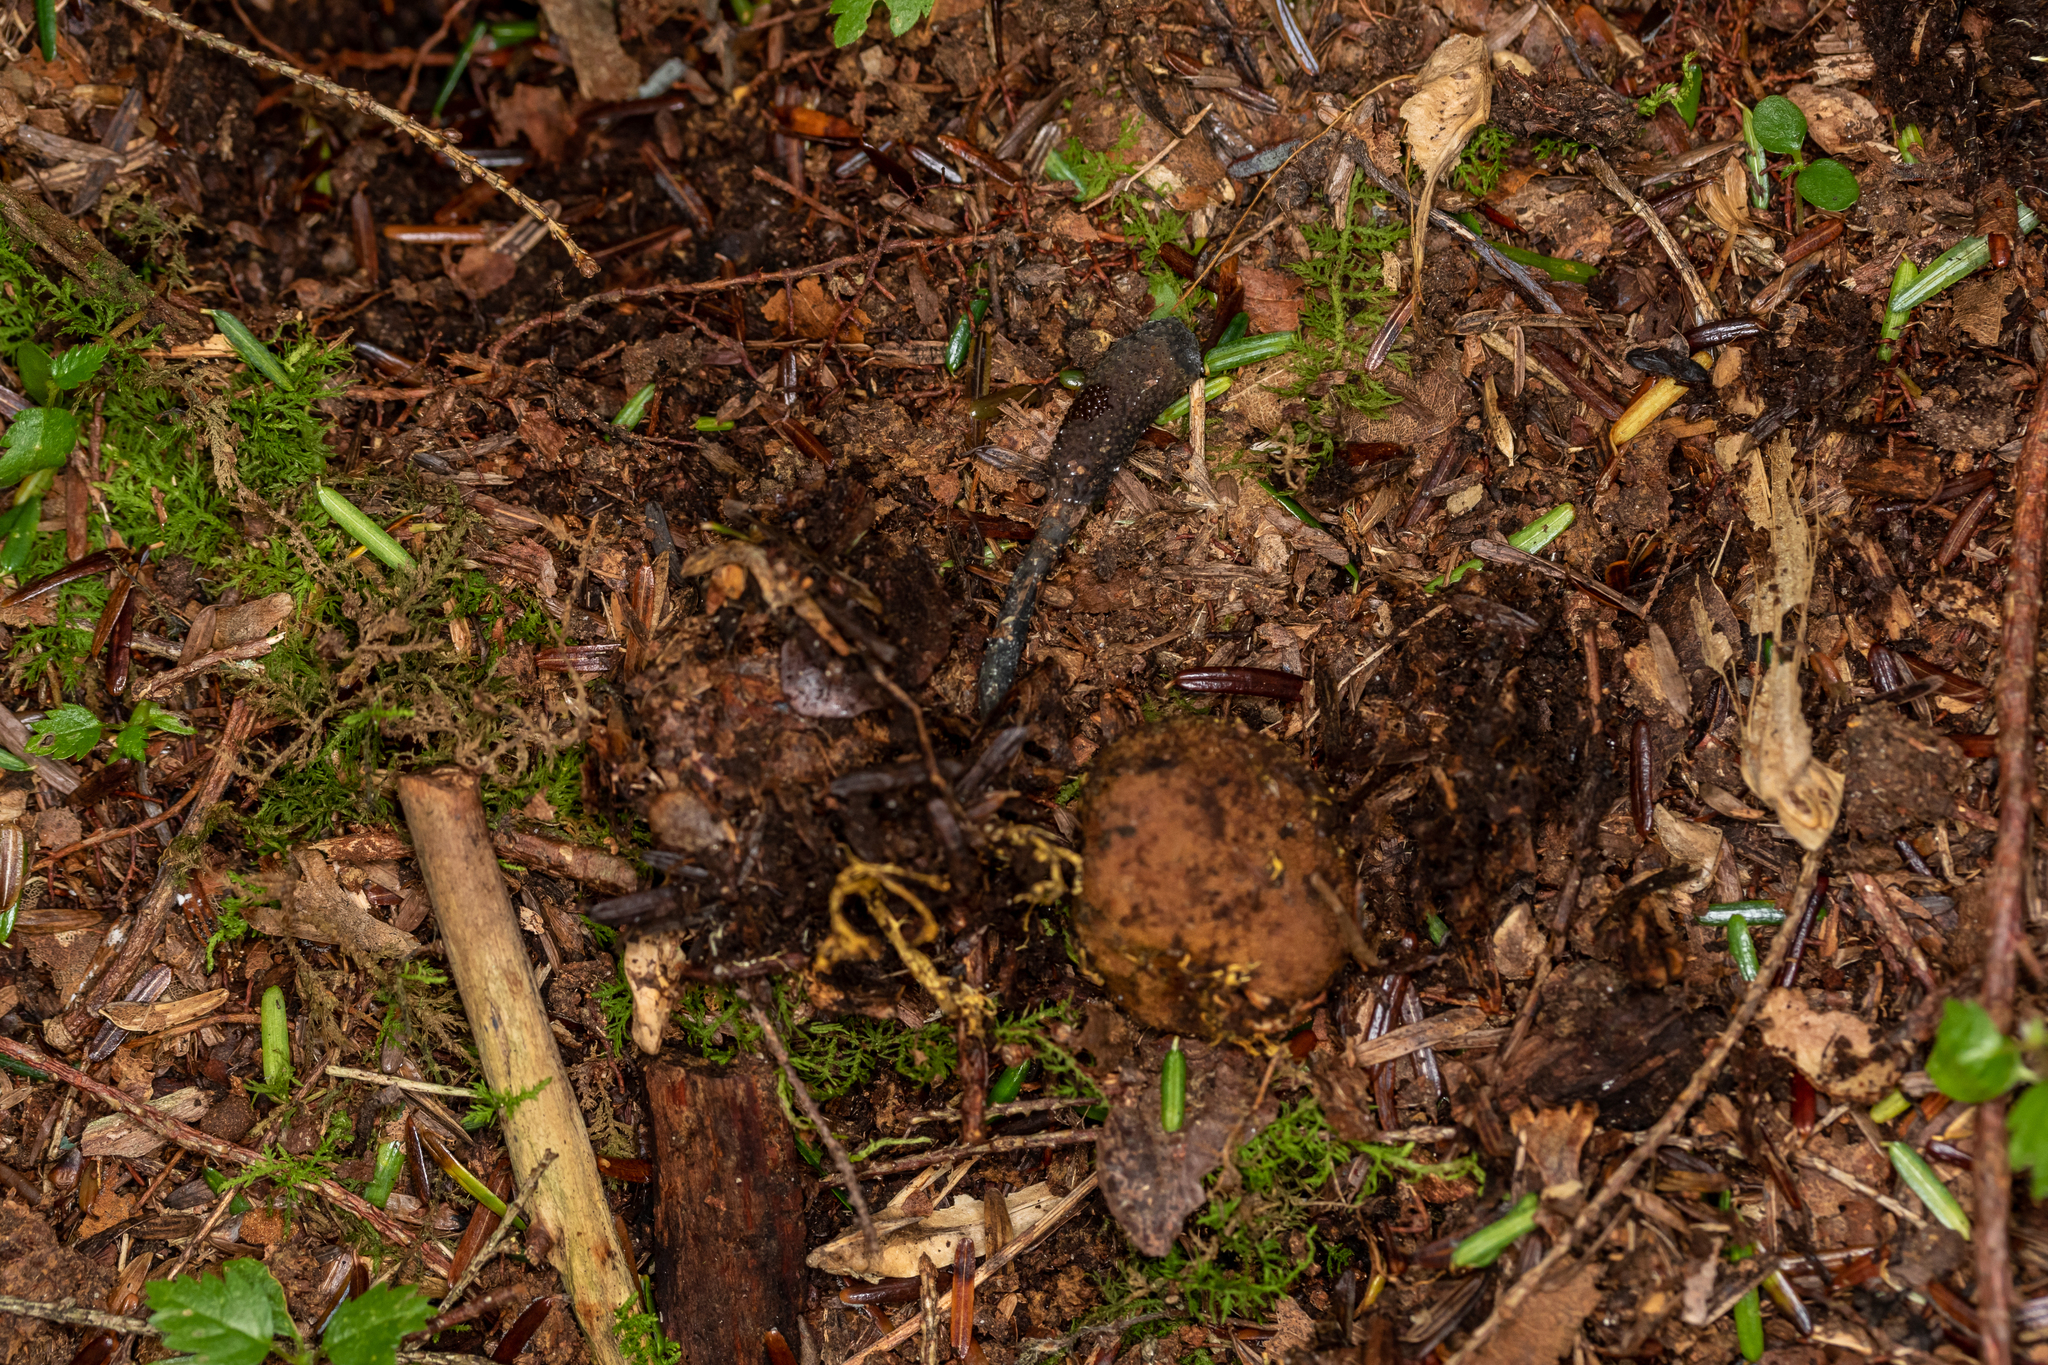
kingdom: Fungi
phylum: Ascomycota
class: Sordariomycetes
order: Hypocreales
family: Ophiocordycipitaceae
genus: Tolypocladium
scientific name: Tolypocladium ophioglossoides
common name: Snaketongue truffleclub
